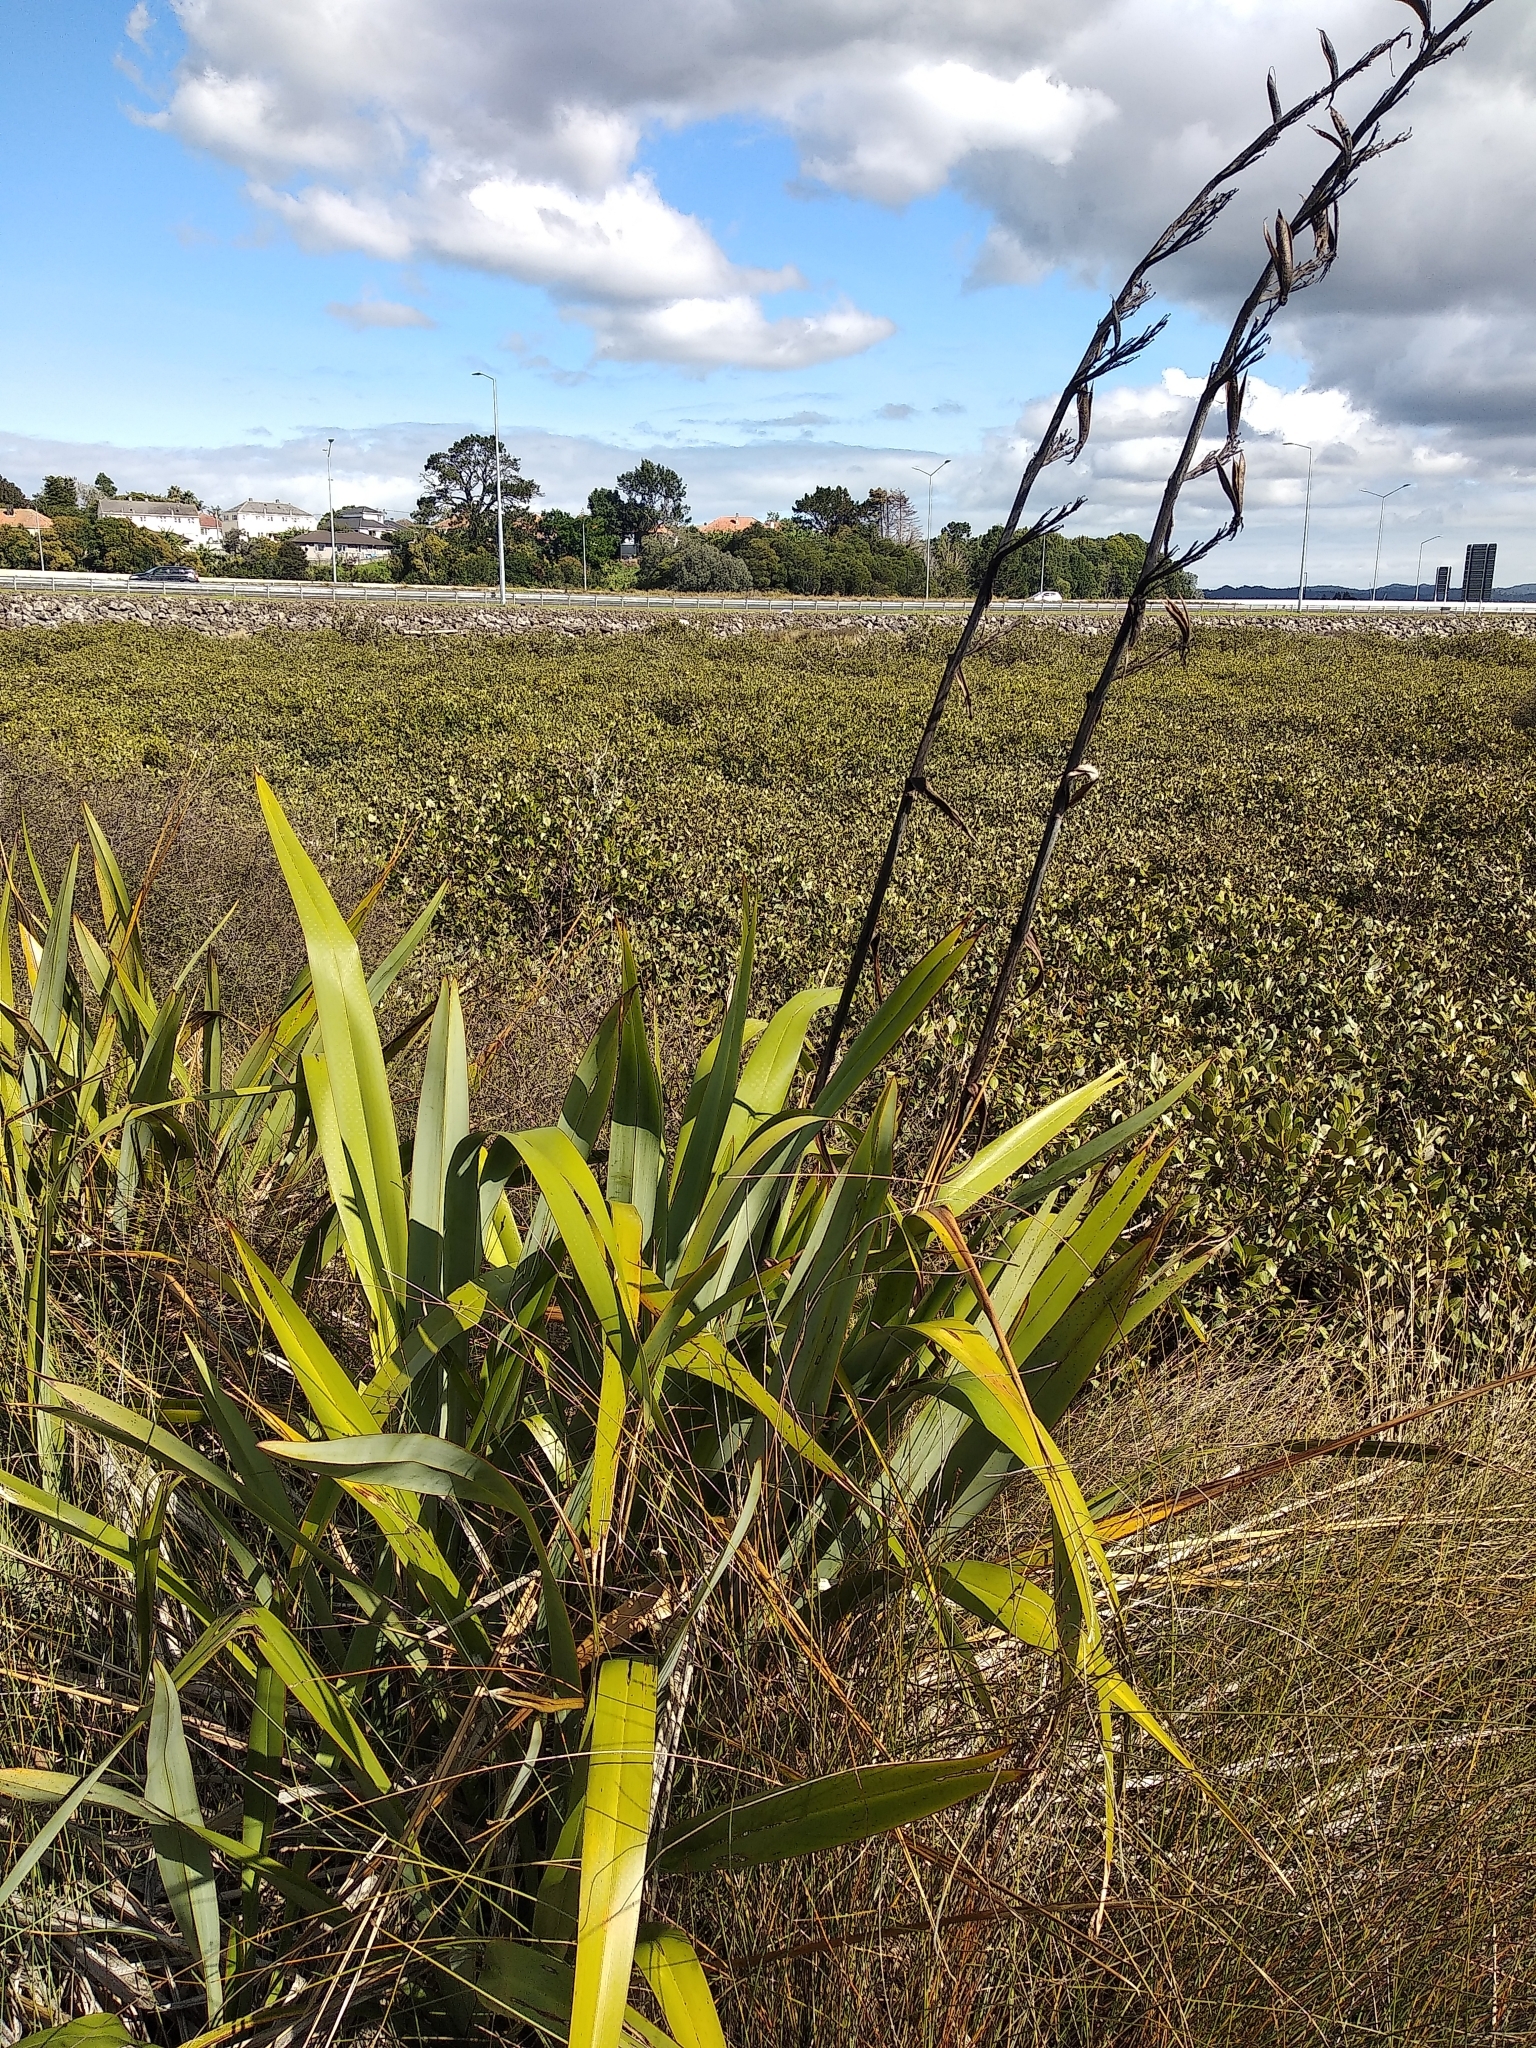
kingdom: Plantae
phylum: Tracheophyta
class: Liliopsida
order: Asparagales
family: Asphodelaceae
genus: Phormium
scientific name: Phormium tenax
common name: New zealand flax
